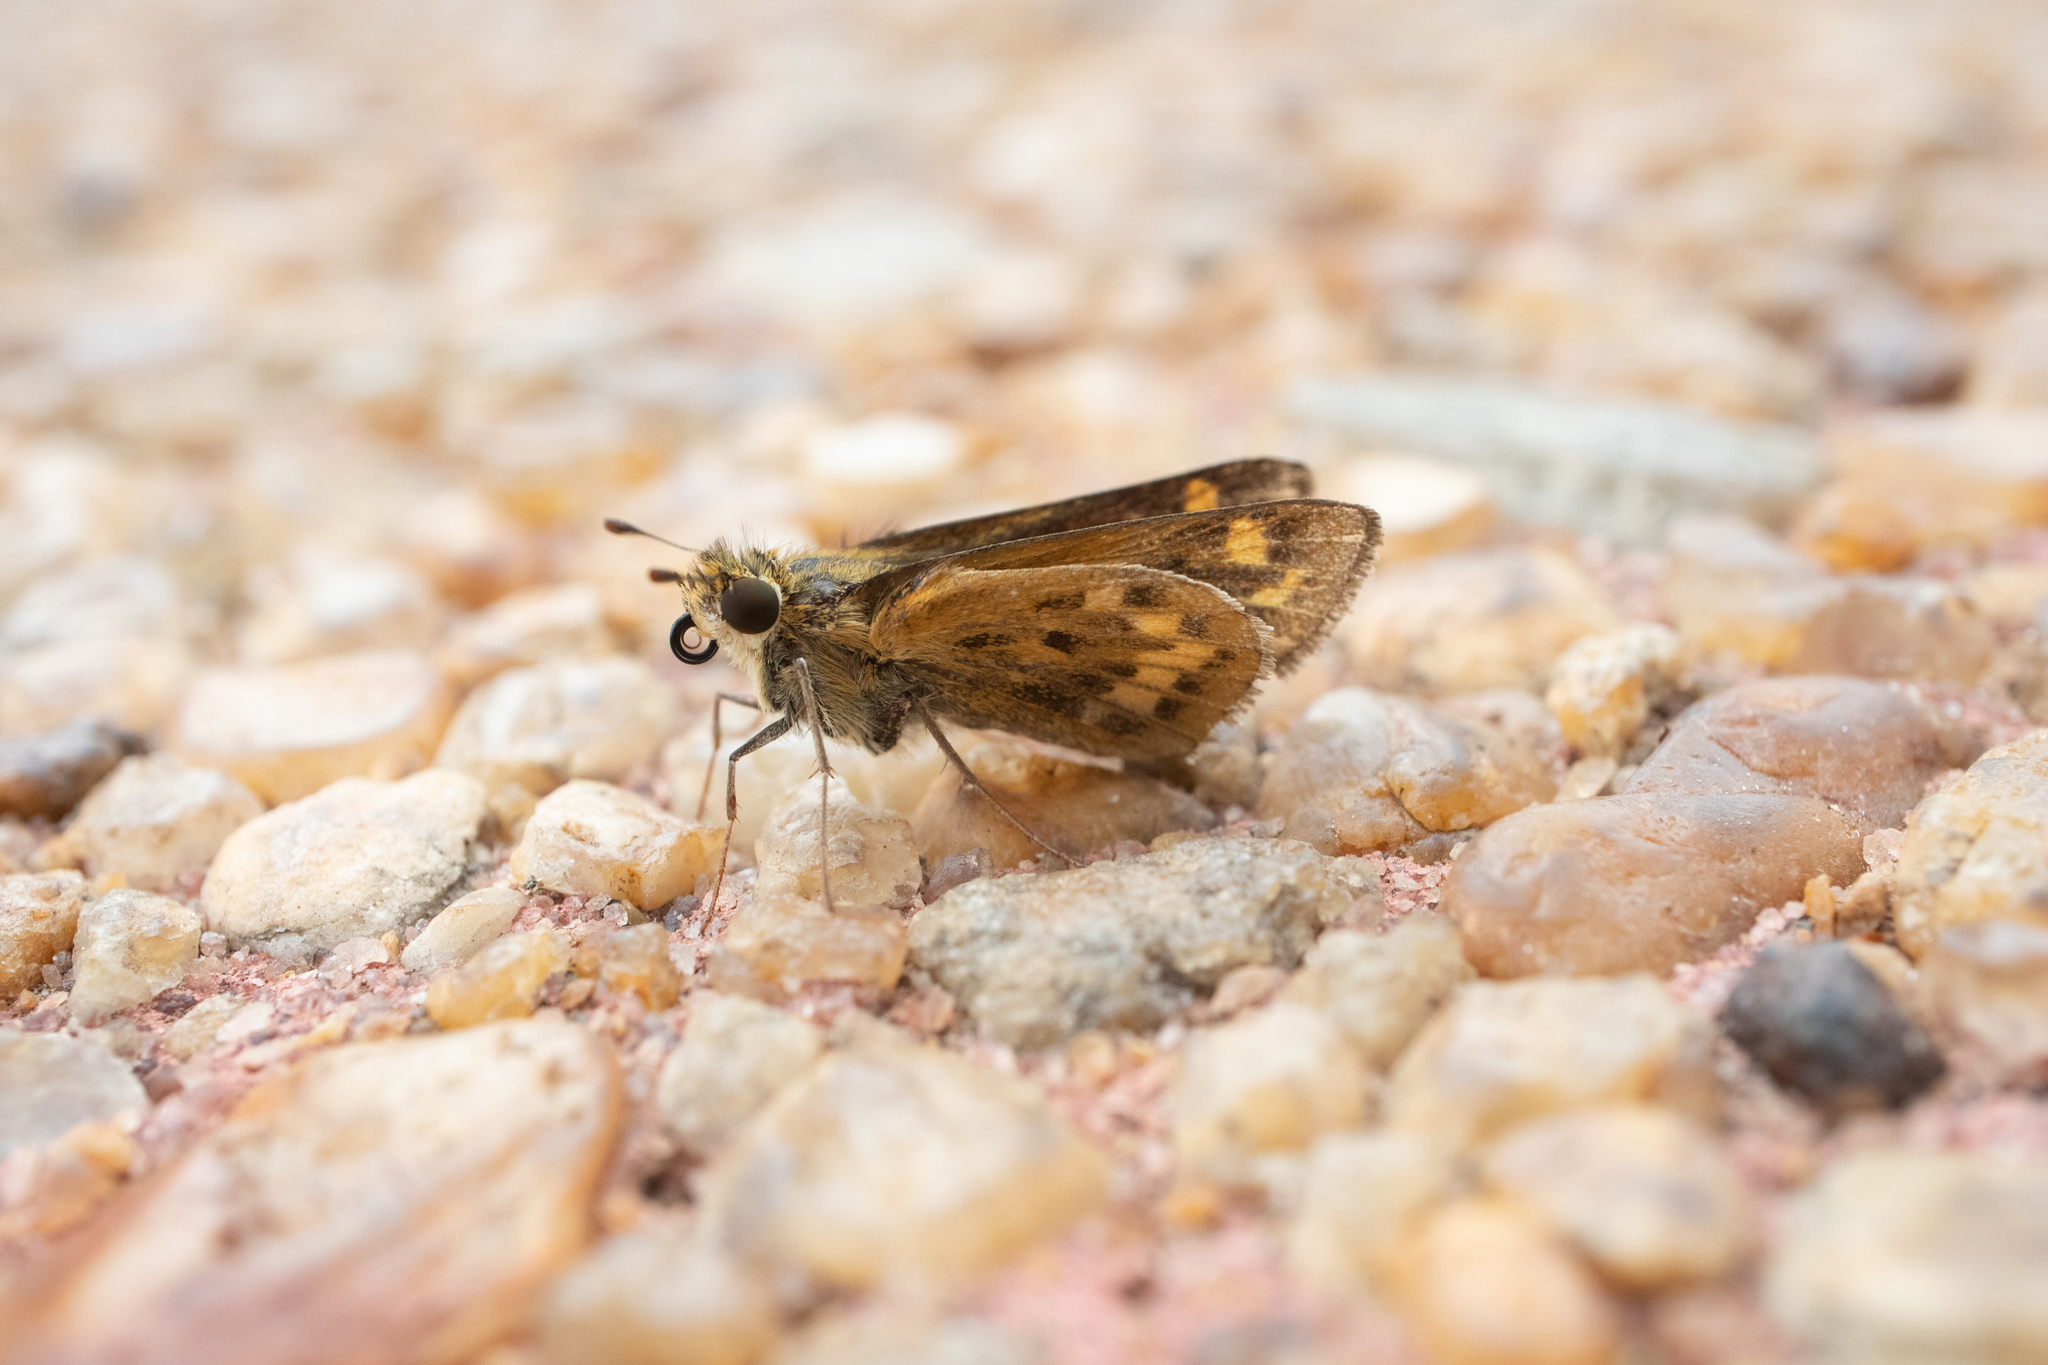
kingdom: Animalia
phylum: Arthropoda
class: Insecta
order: Lepidoptera
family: Hesperiidae
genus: Hylephila
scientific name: Hylephila phyleus
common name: Fiery skipper
